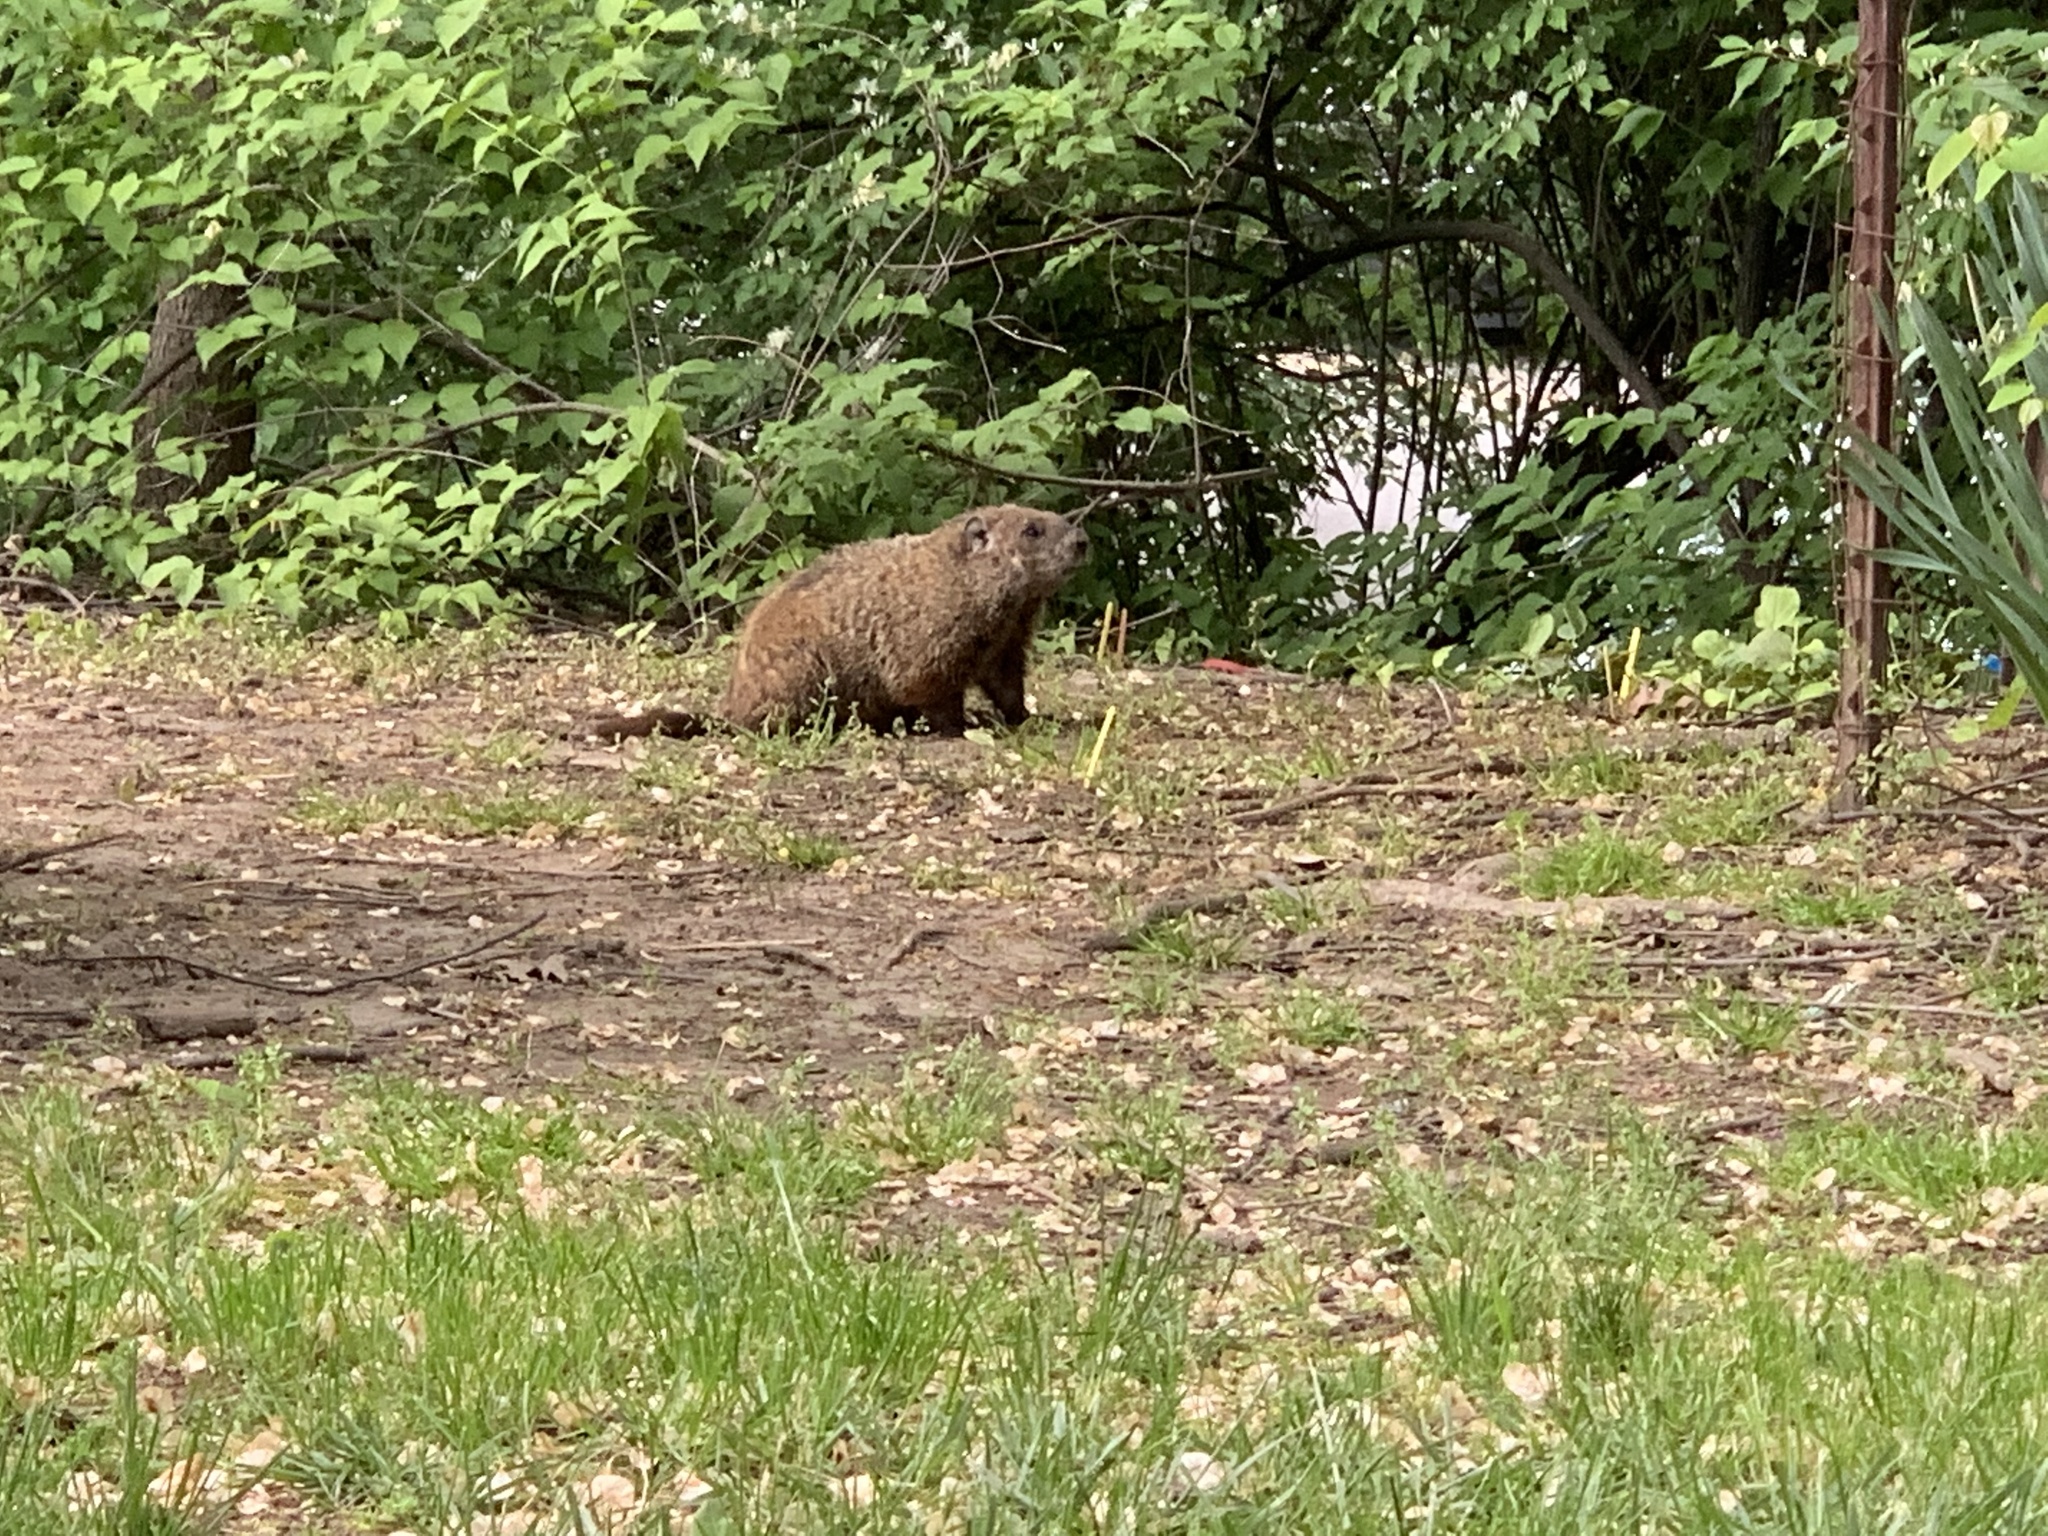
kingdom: Animalia
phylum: Chordata
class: Mammalia
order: Rodentia
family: Sciuridae
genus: Marmota
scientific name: Marmota monax
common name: Groundhog
